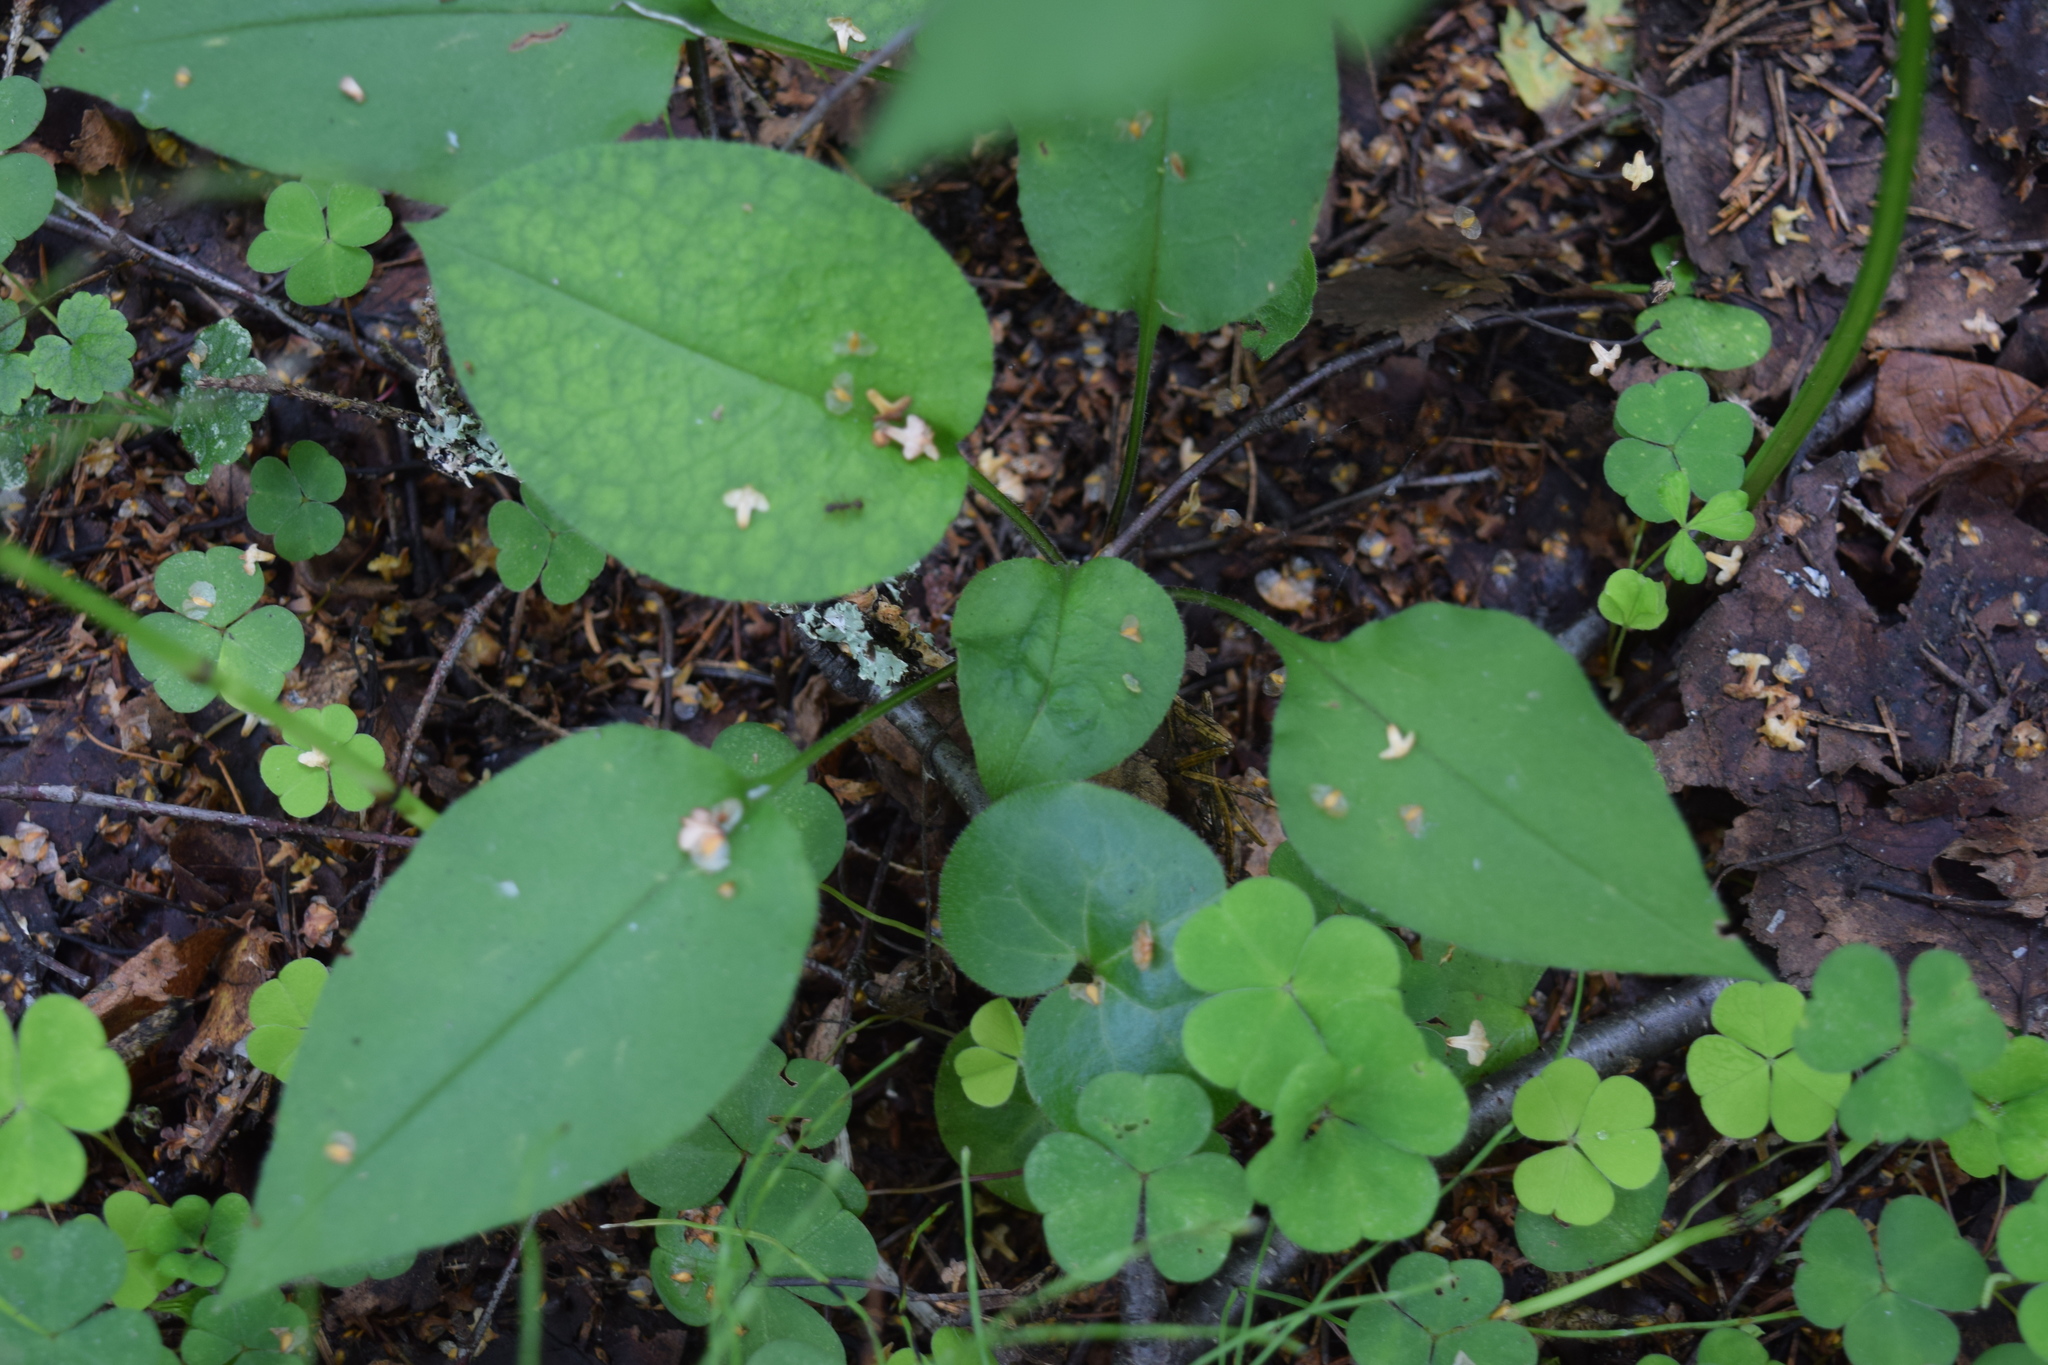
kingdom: Plantae
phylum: Tracheophyta
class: Magnoliopsida
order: Boraginales
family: Boraginaceae
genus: Pulmonaria
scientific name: Pulmonaria obscura
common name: Suffolk lungwort
